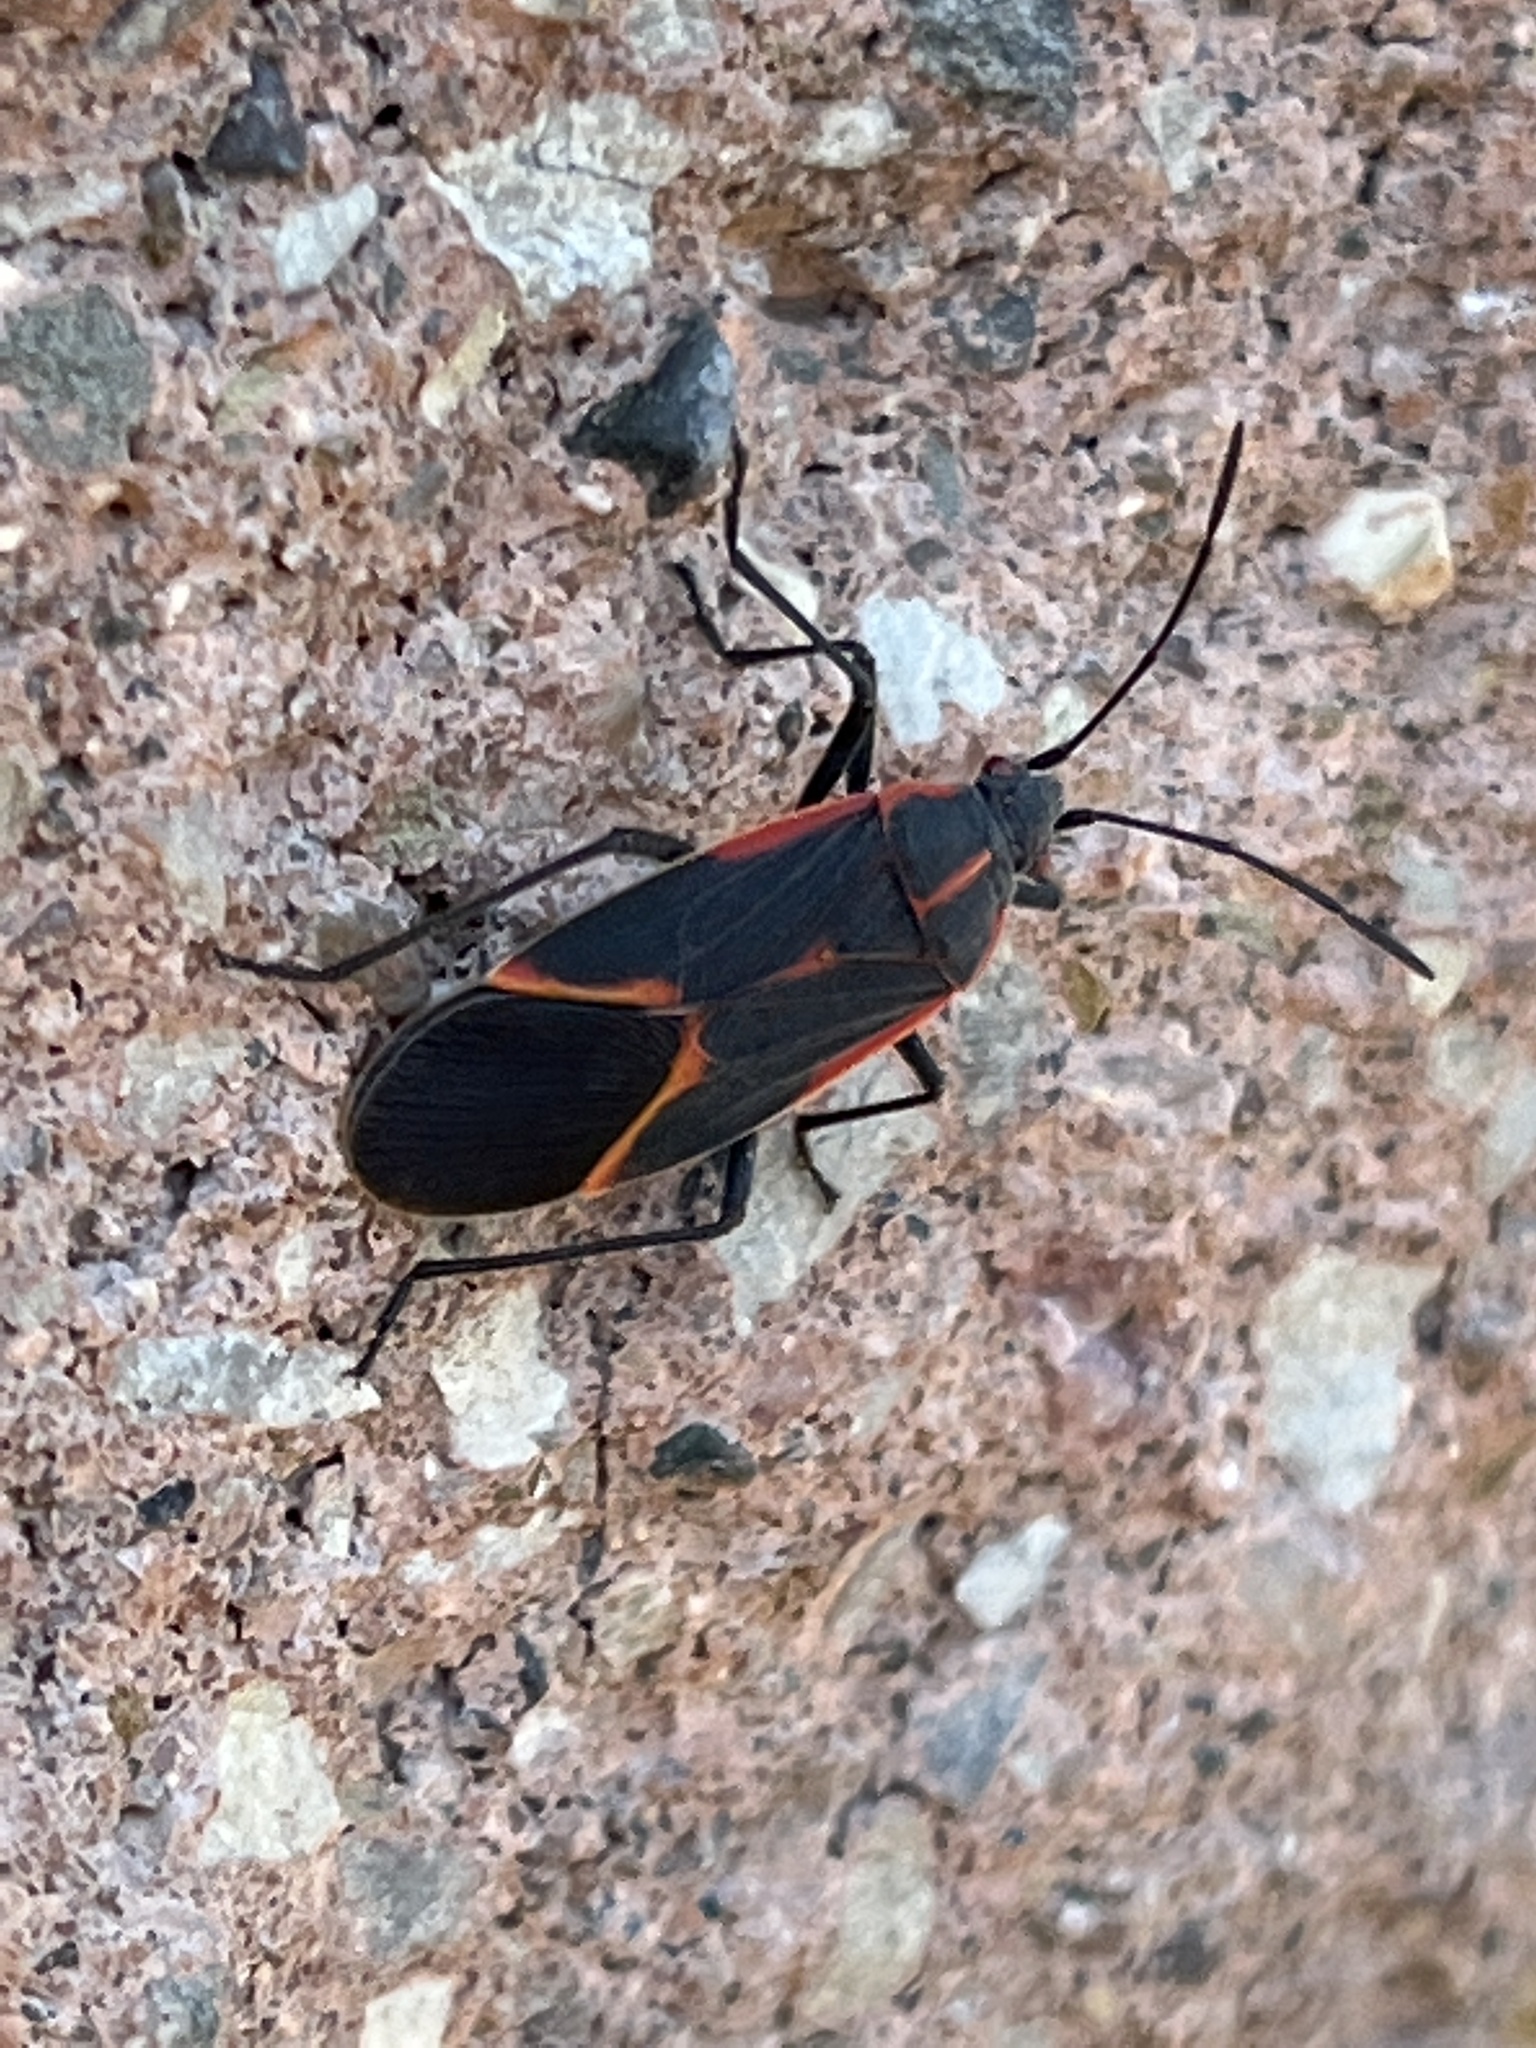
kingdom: Animalia
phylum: Arthropoda
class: Insecta
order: Hemiptera
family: Rhopalidae
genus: Boisea
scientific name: Boisea trivittata
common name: Boxelder bug
